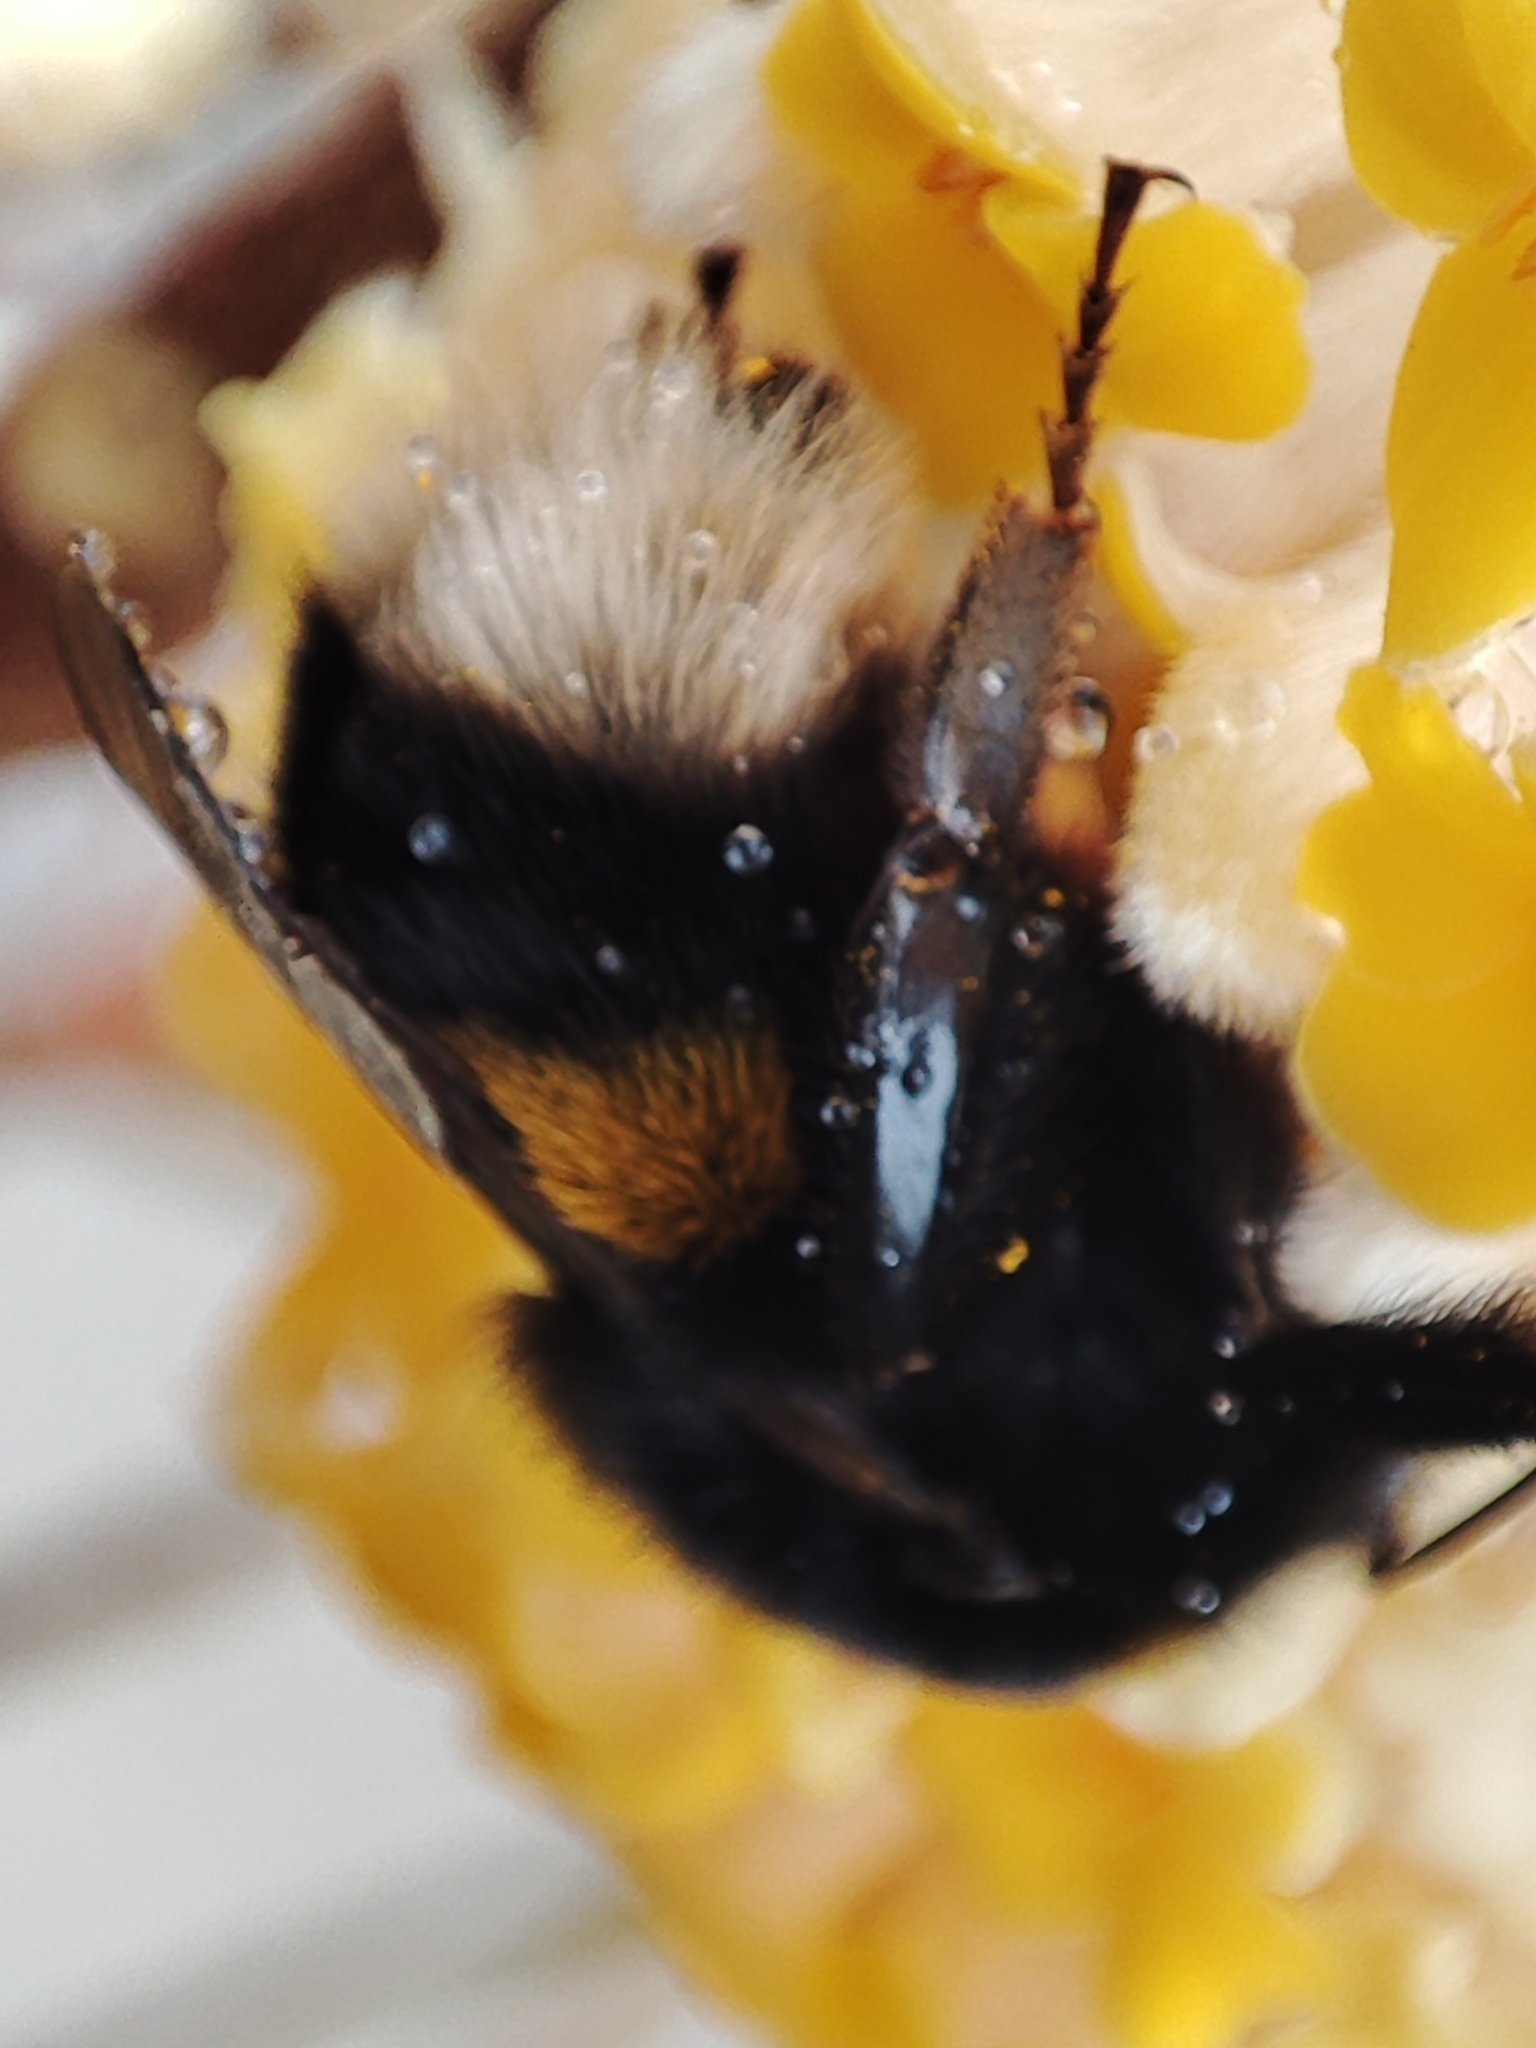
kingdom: Animalia
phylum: Arthropoda
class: Insecta
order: Hymenoptera
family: Apidae
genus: Bombus
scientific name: Bombus
